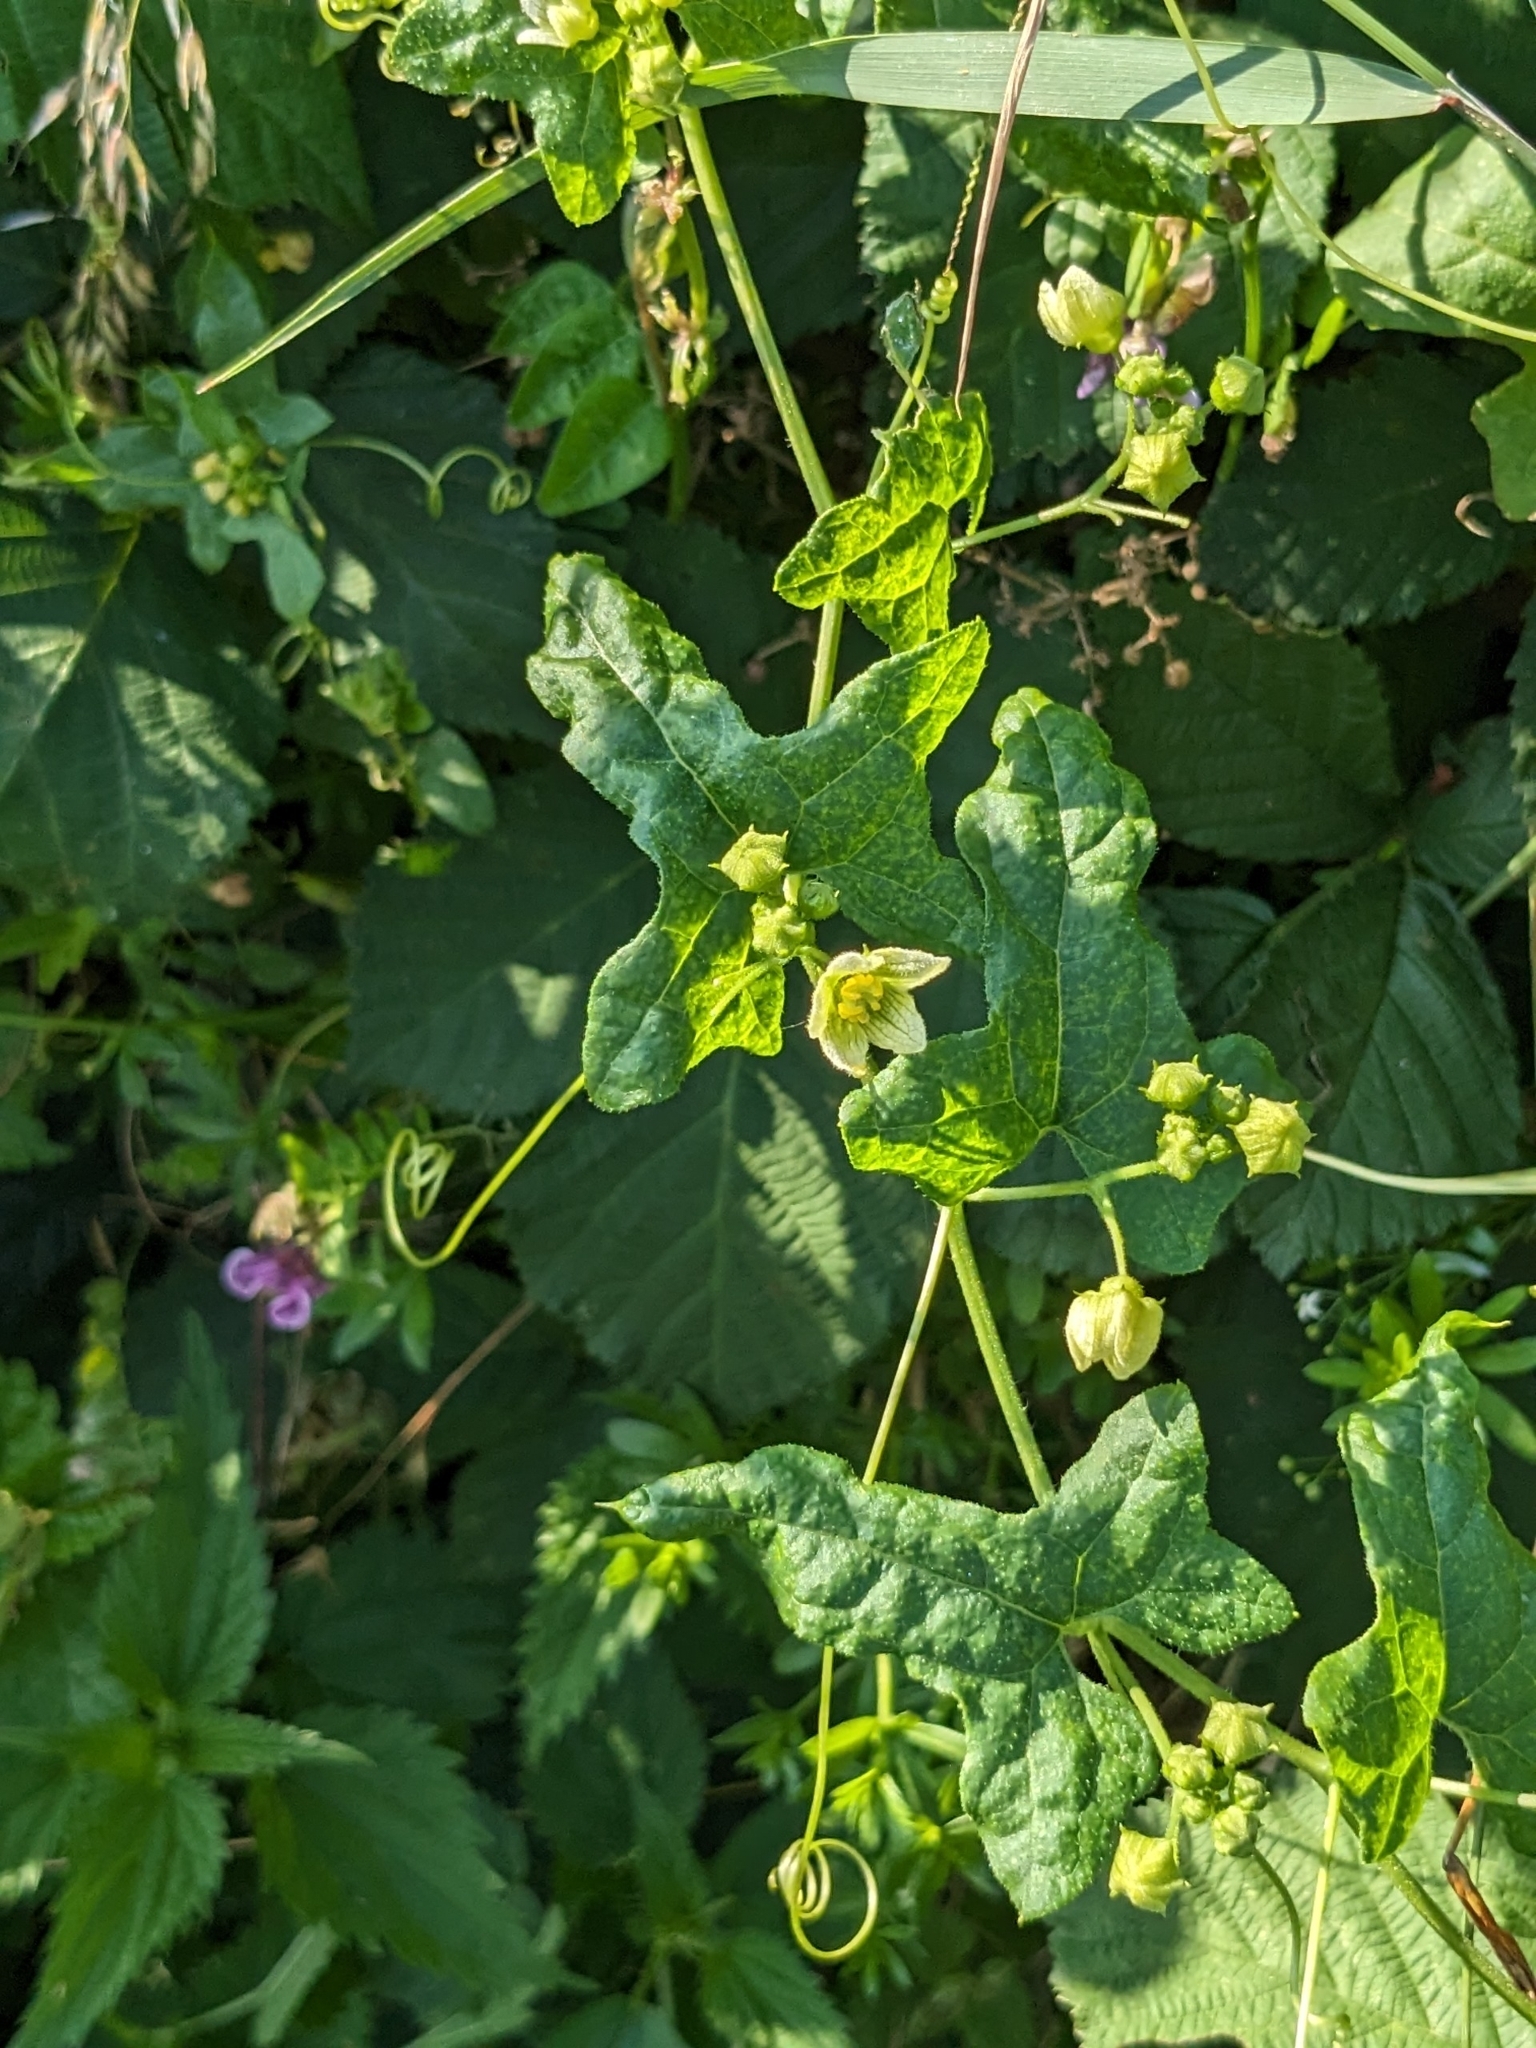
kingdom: Plantae
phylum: Tracheophyta
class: Magnoliopsida
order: Cucurbitales
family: Cucurbitaceae
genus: Bryonia
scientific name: Bryonia cretica
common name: Cretan bryony
